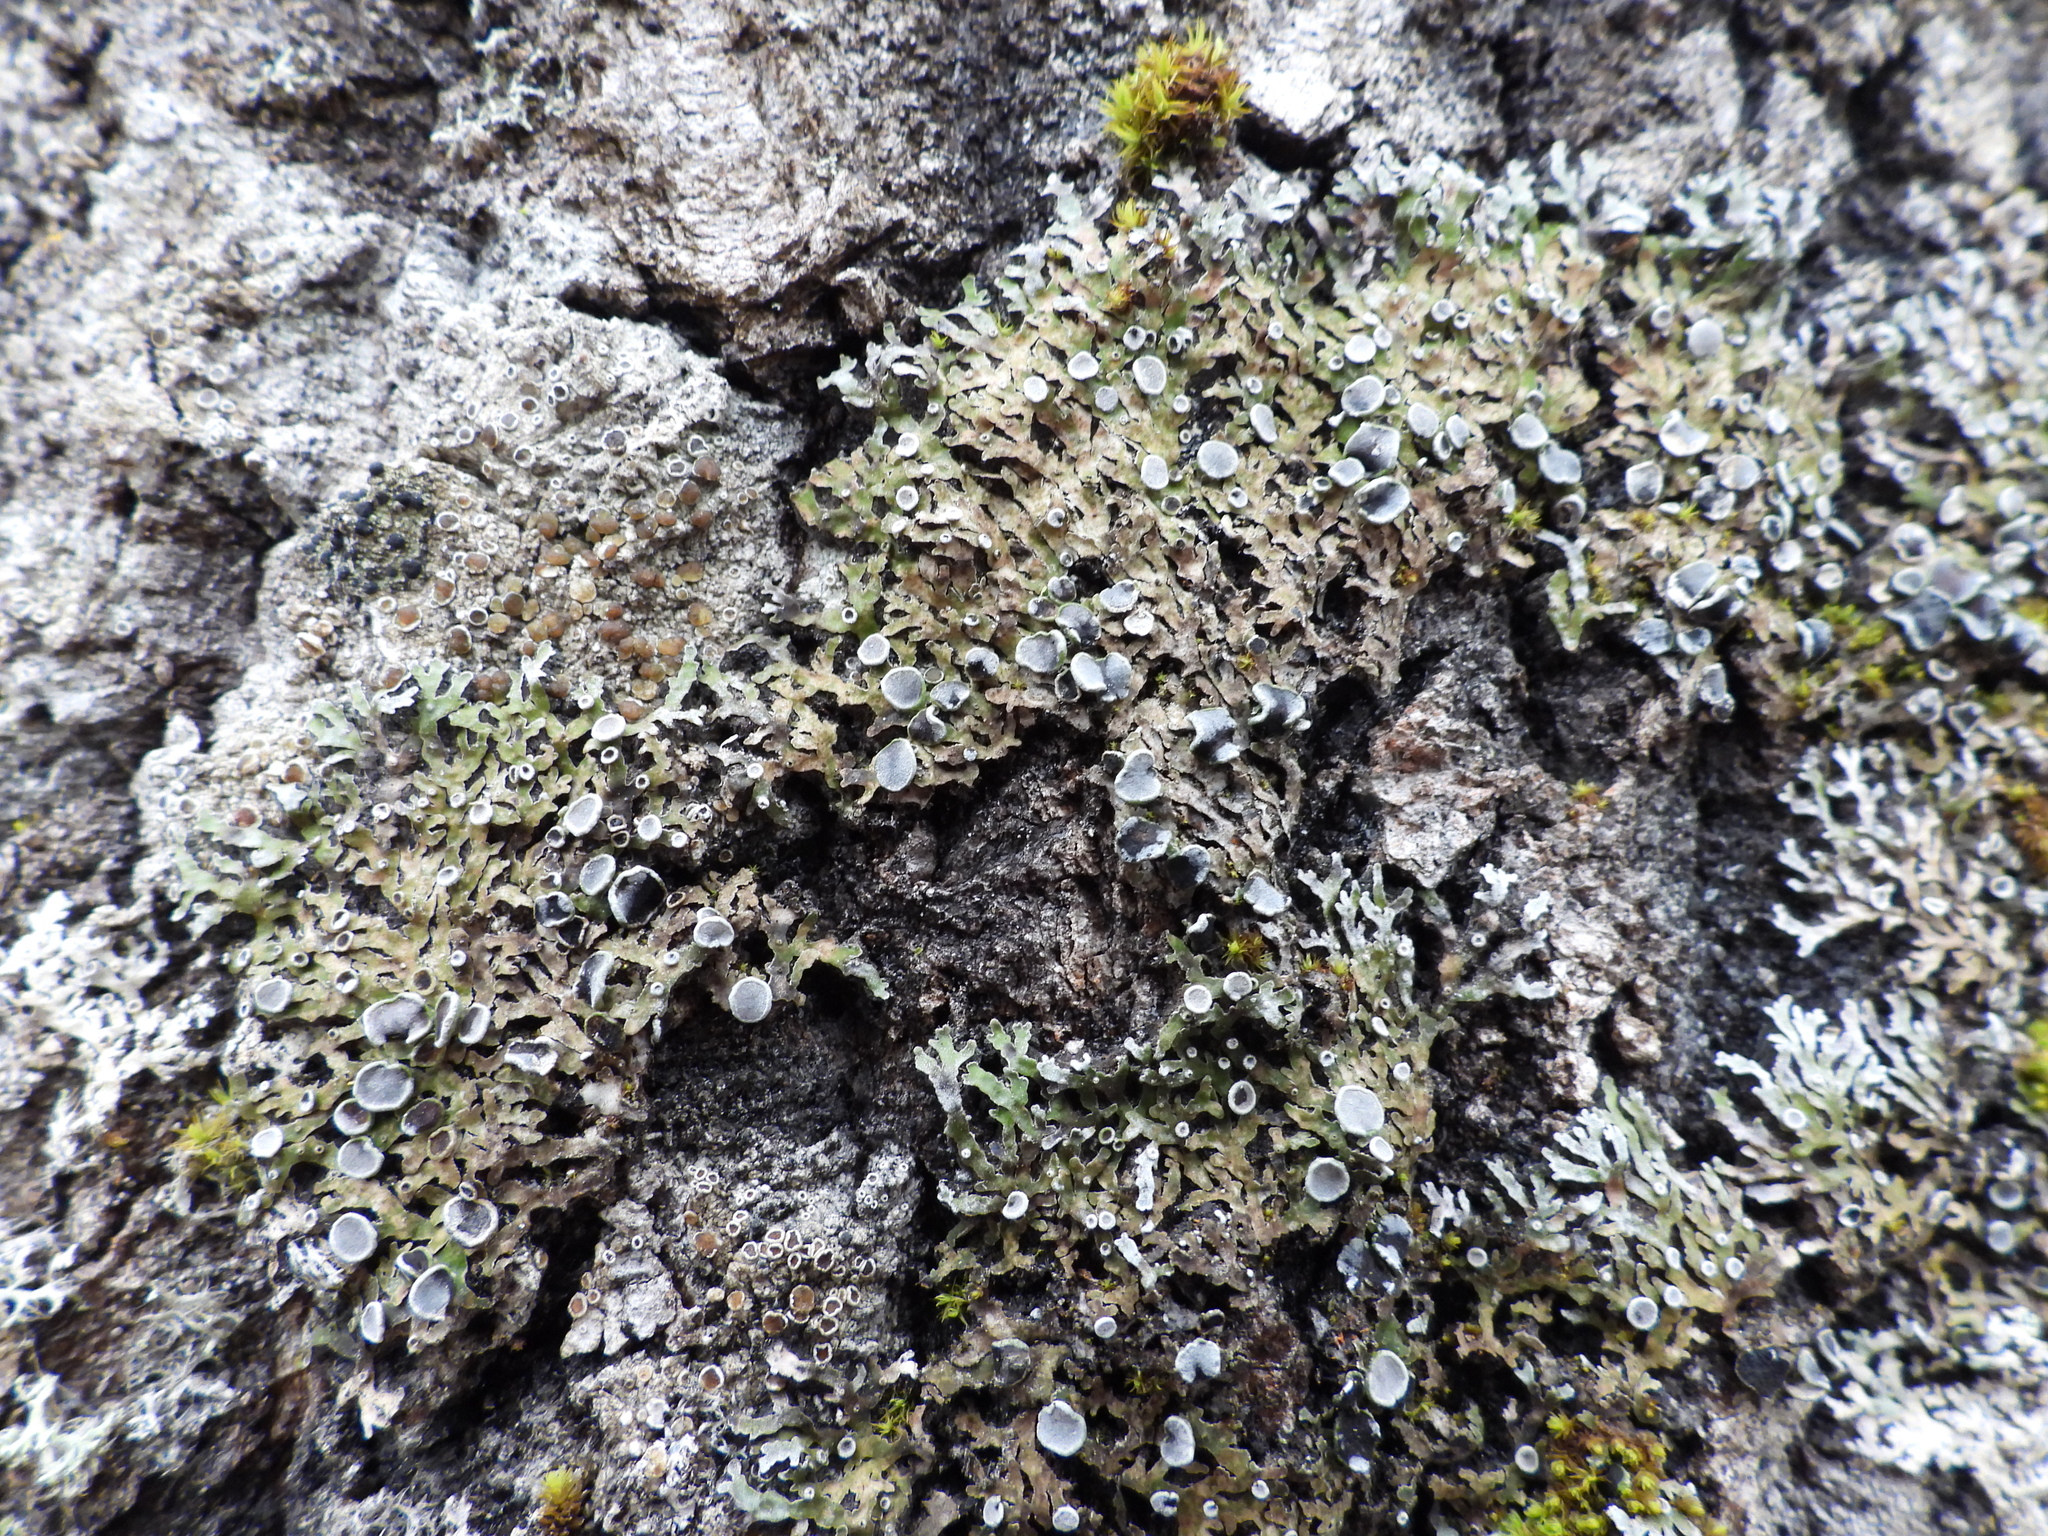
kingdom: Fungi
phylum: Ascomycota
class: Lecanoromycetes
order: Caliciales
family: Physciaceae
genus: Physconia
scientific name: Physconia distorta
